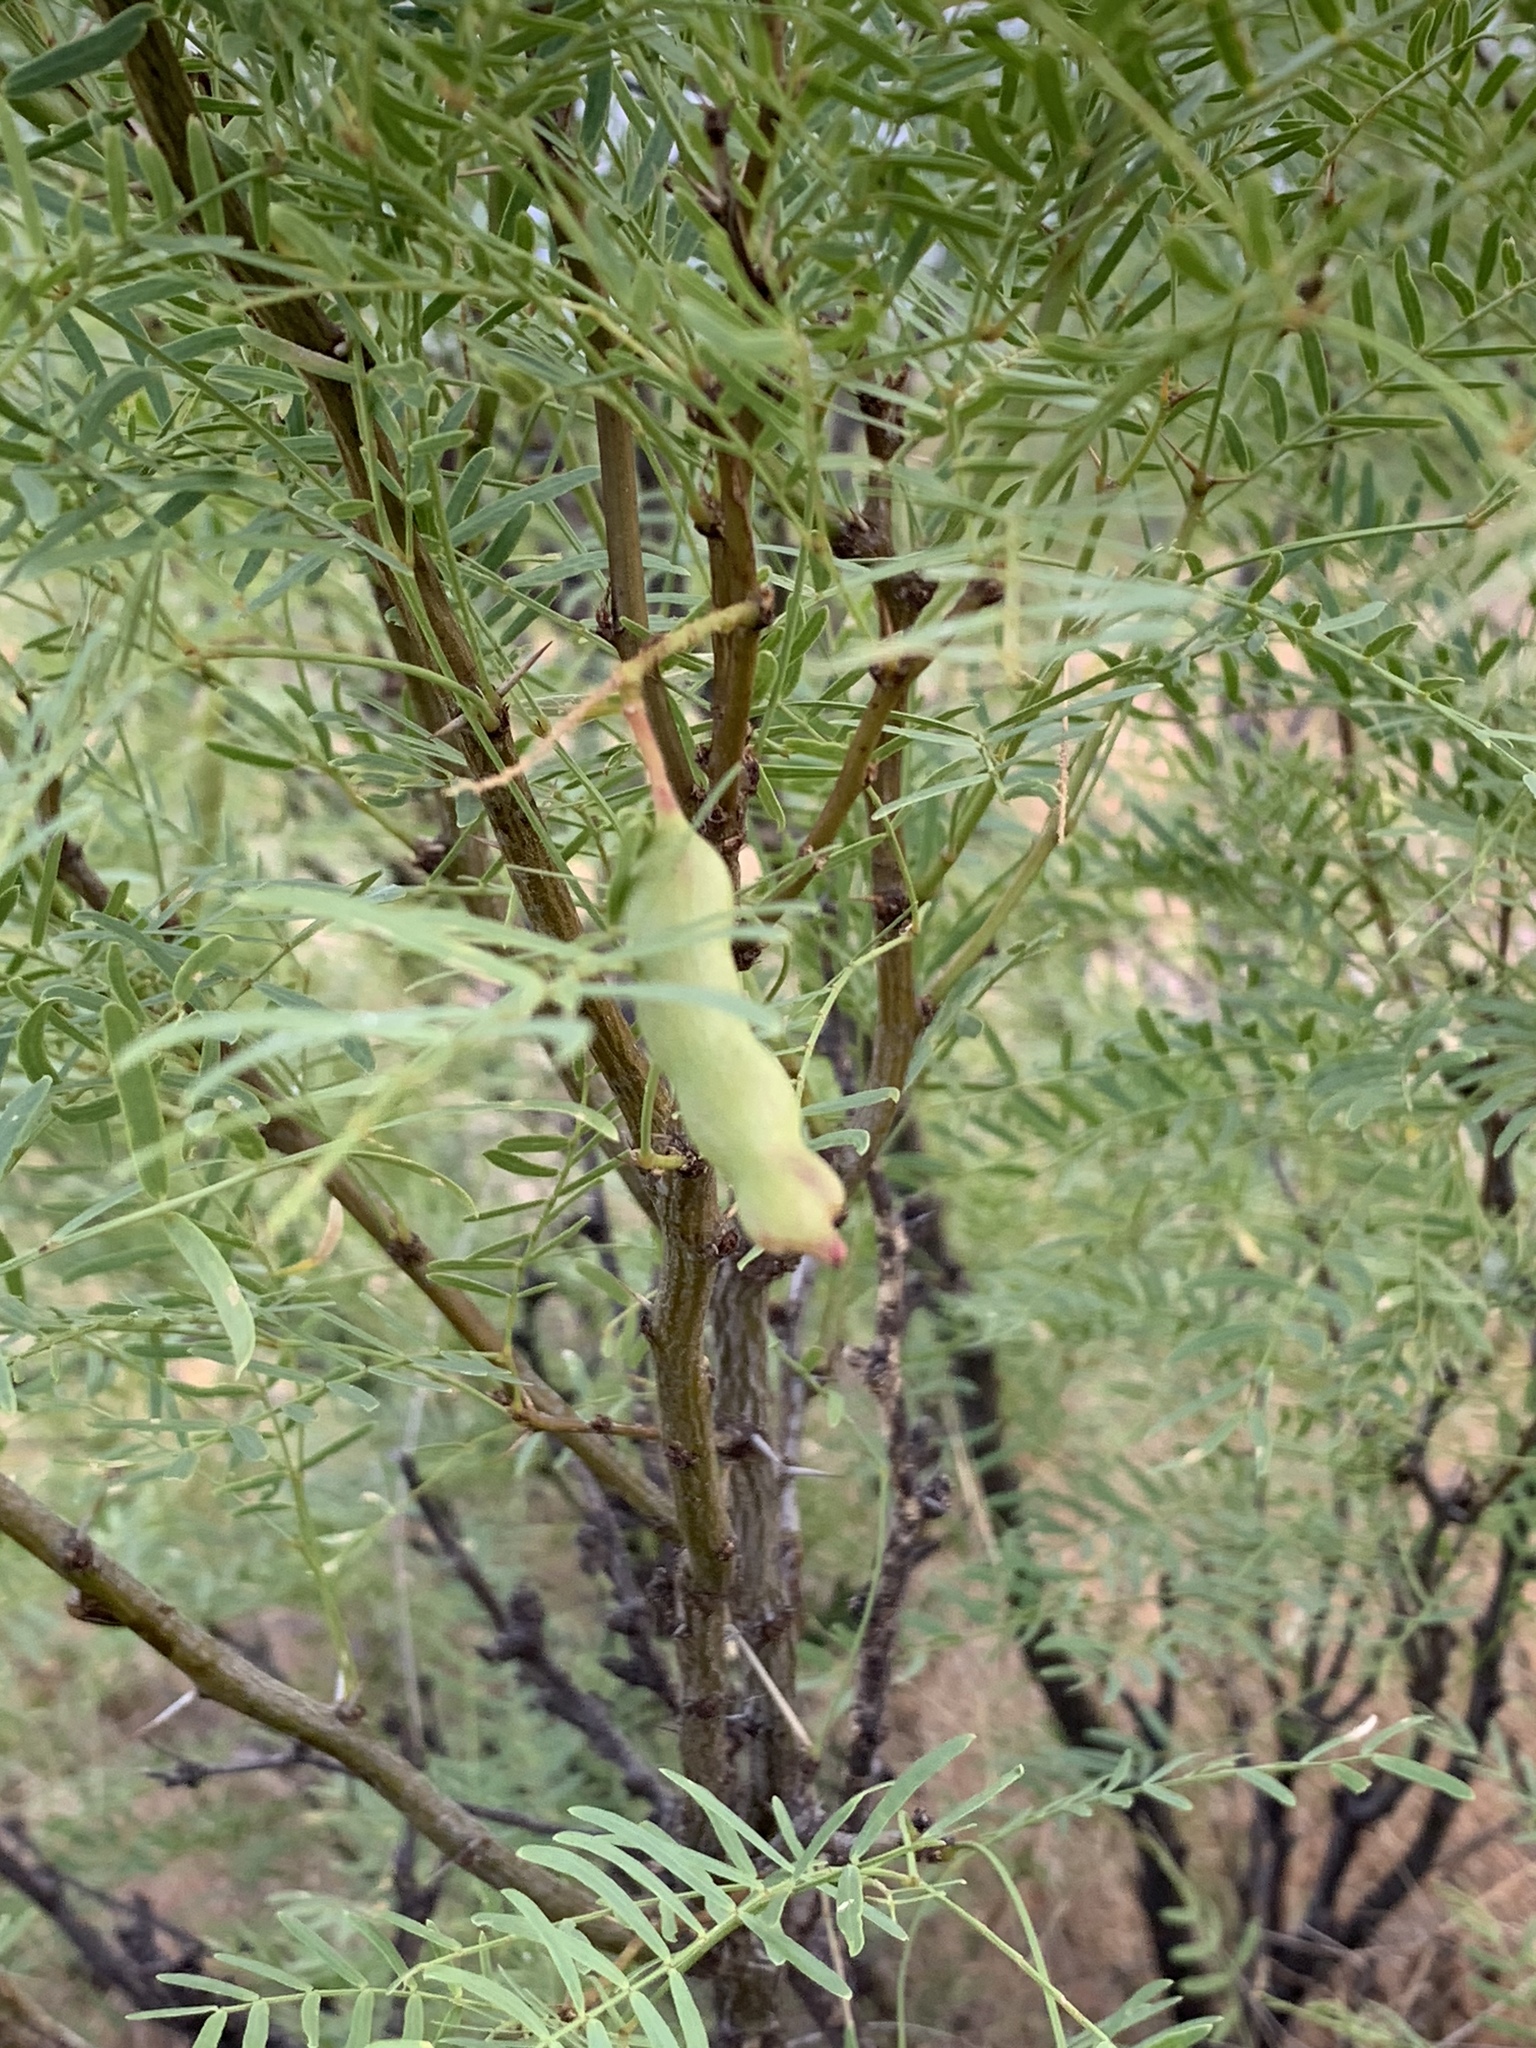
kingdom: Plantae
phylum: Tracheophyta
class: Magnoliopsida
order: Fabales
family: Fabaceae
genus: Prosopis
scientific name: Prosopis glandulosa
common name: Honey mesquite
